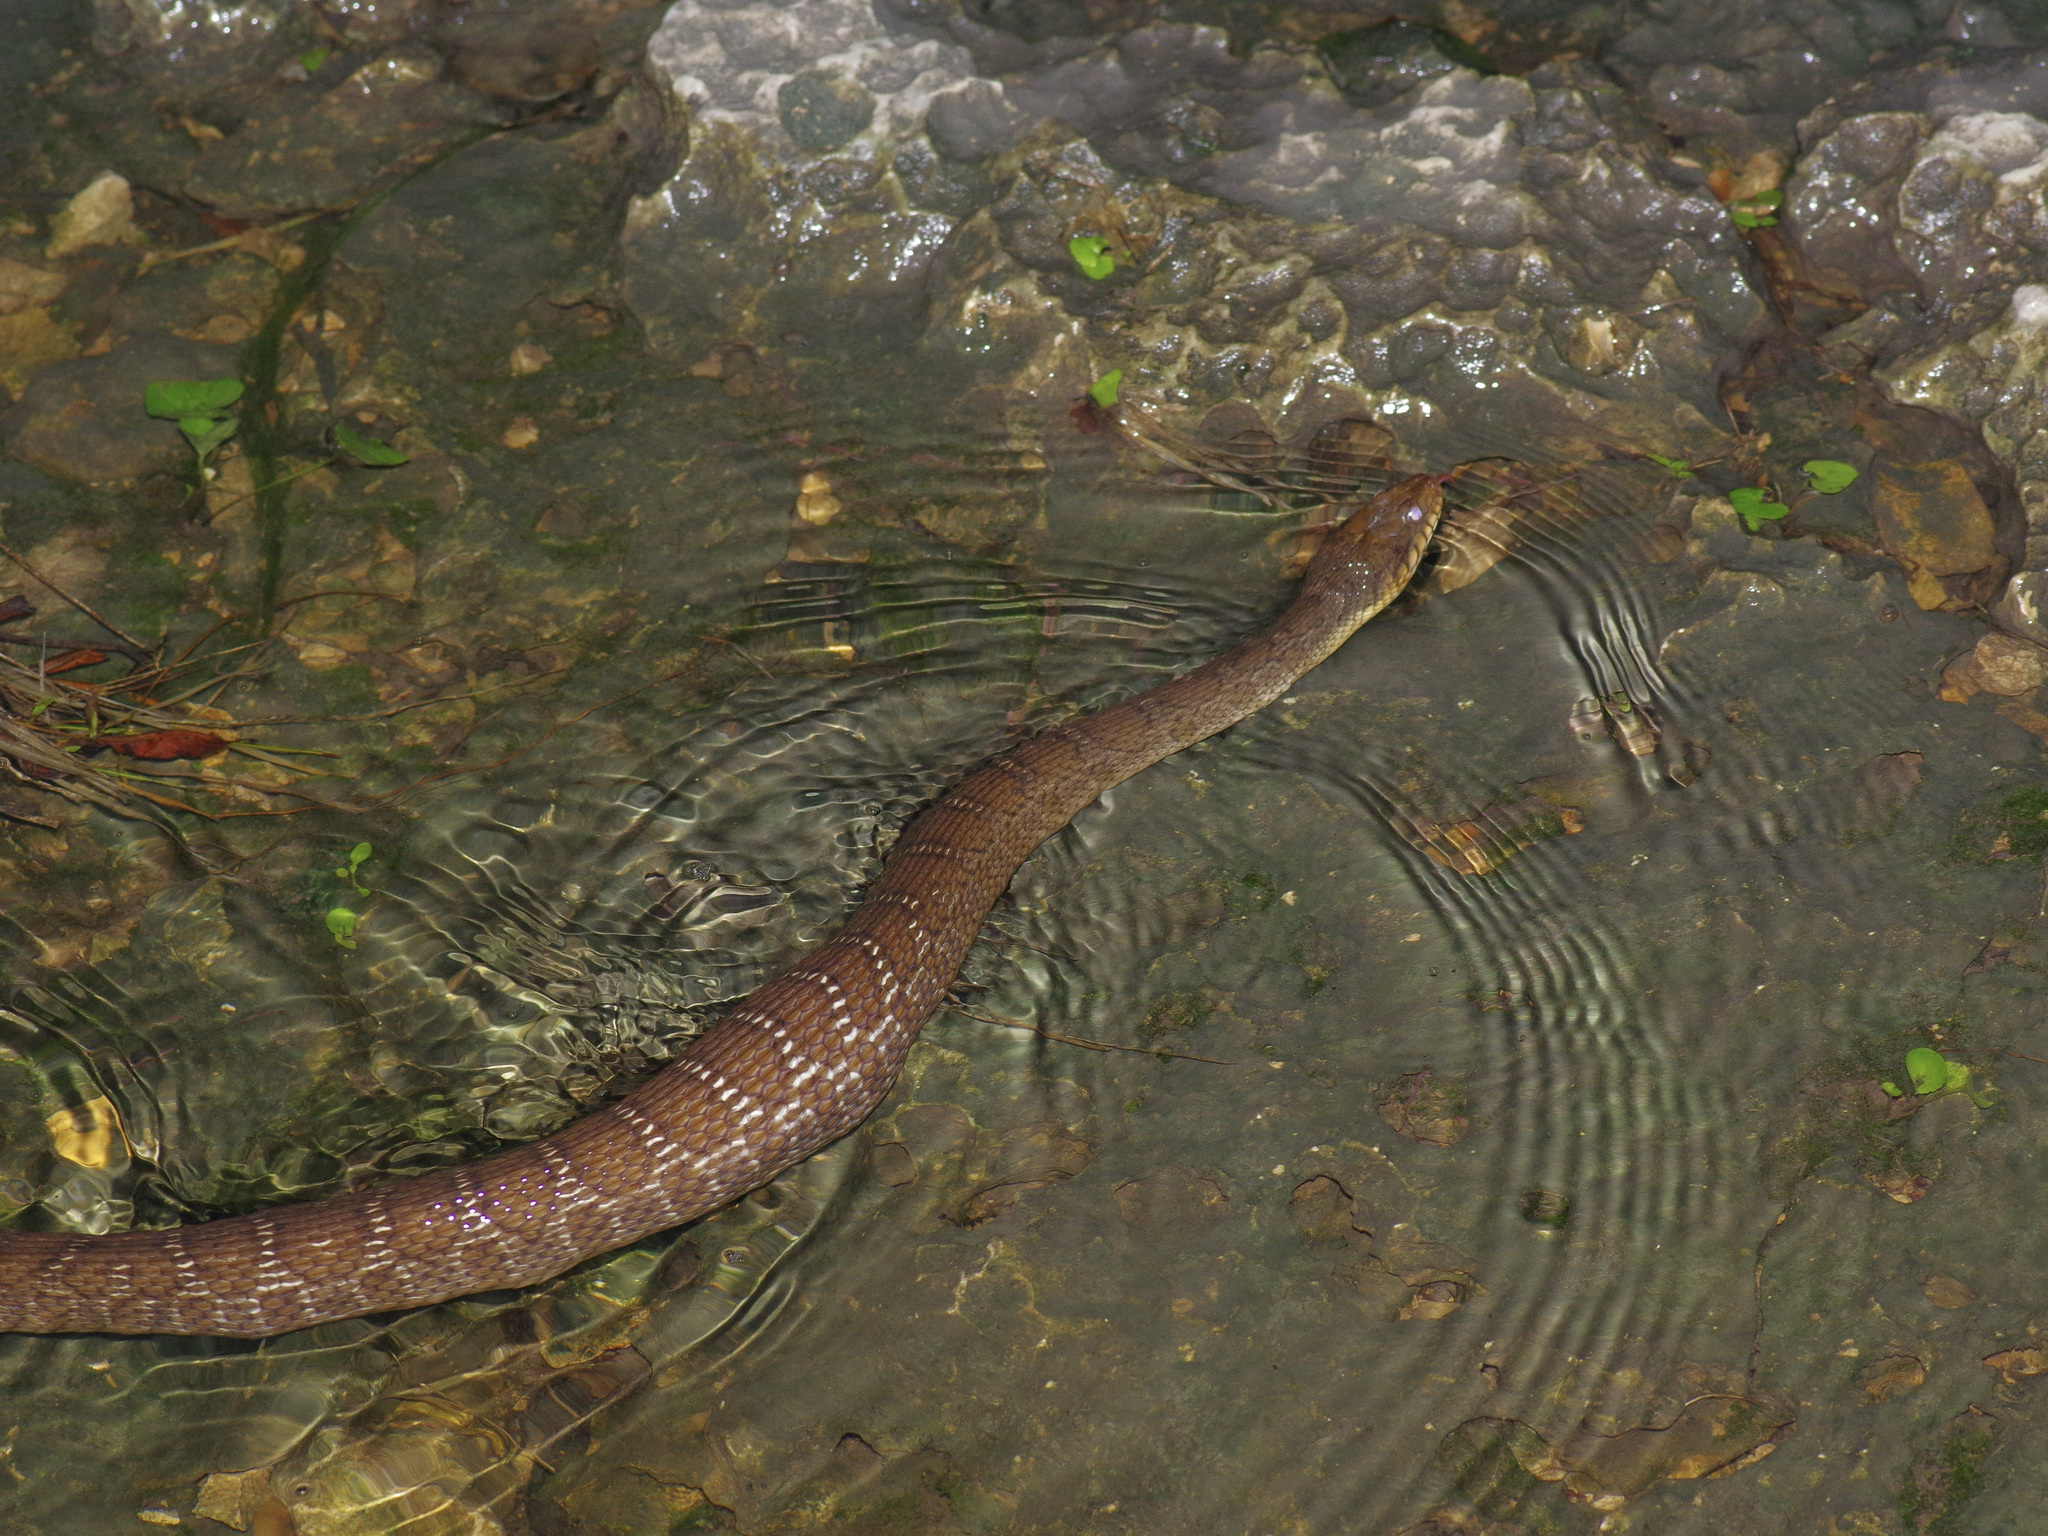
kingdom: Animalia
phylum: Chordata
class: Squamata
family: Colubridae
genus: Nerodia
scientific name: Nerodia erythrogaster
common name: Plainbelly water snake
